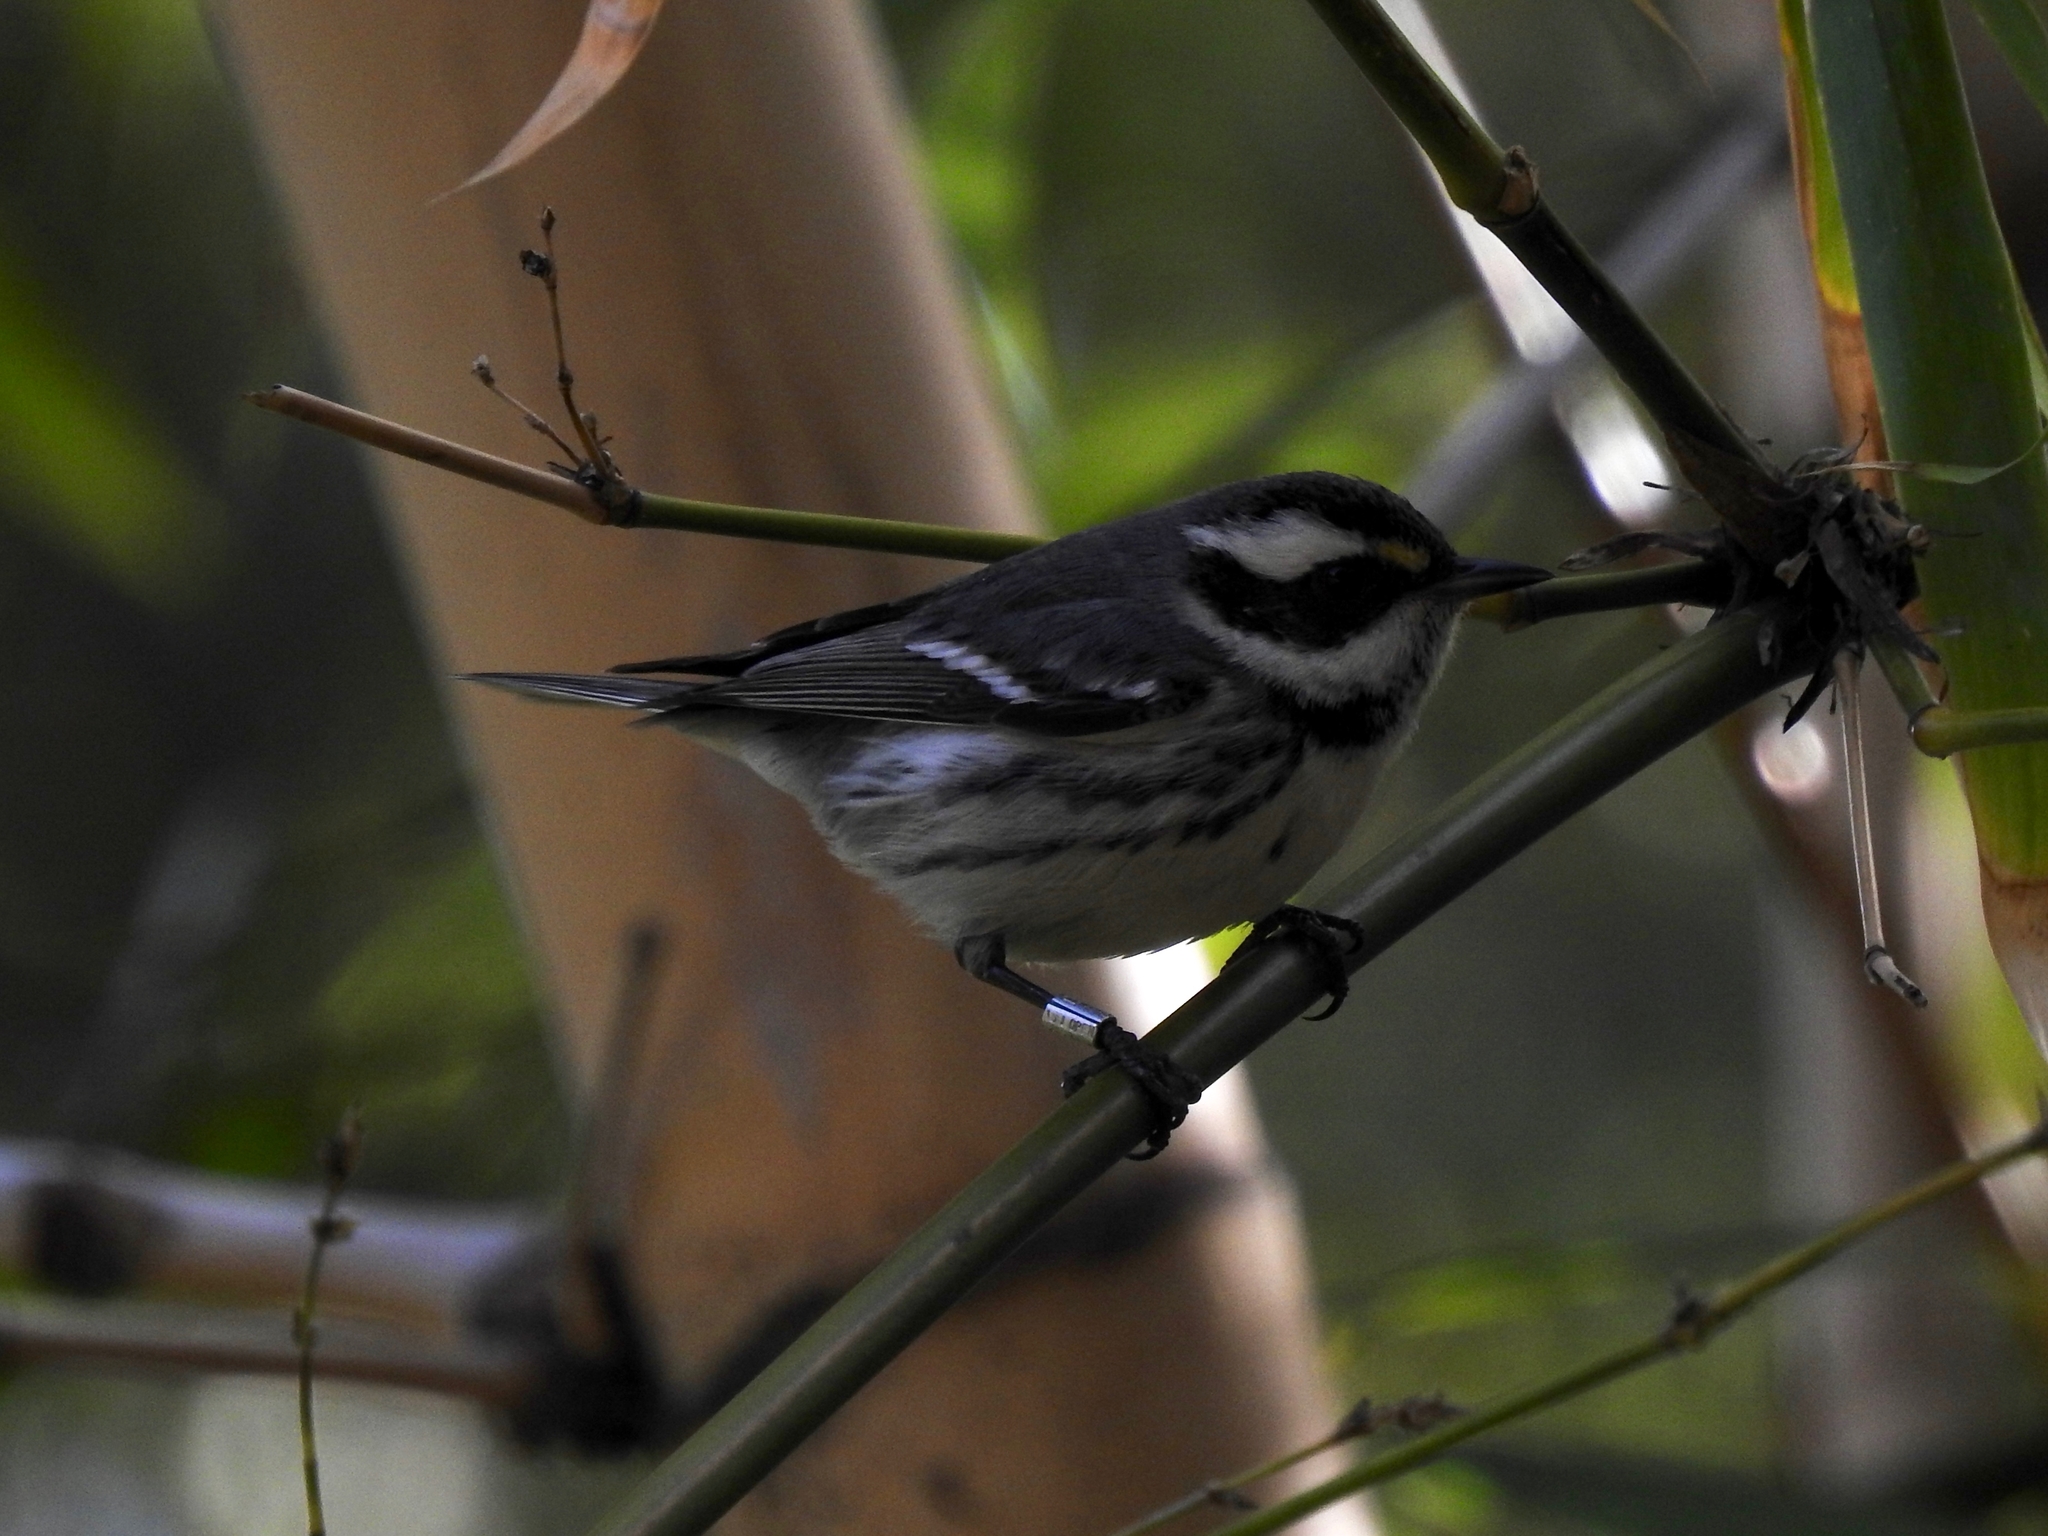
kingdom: Animalia
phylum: Chordata
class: Aves
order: Passeriformes
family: Parulidae
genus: Setophaga
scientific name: Setophaga nigrescens
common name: Black-throated gray warbler
